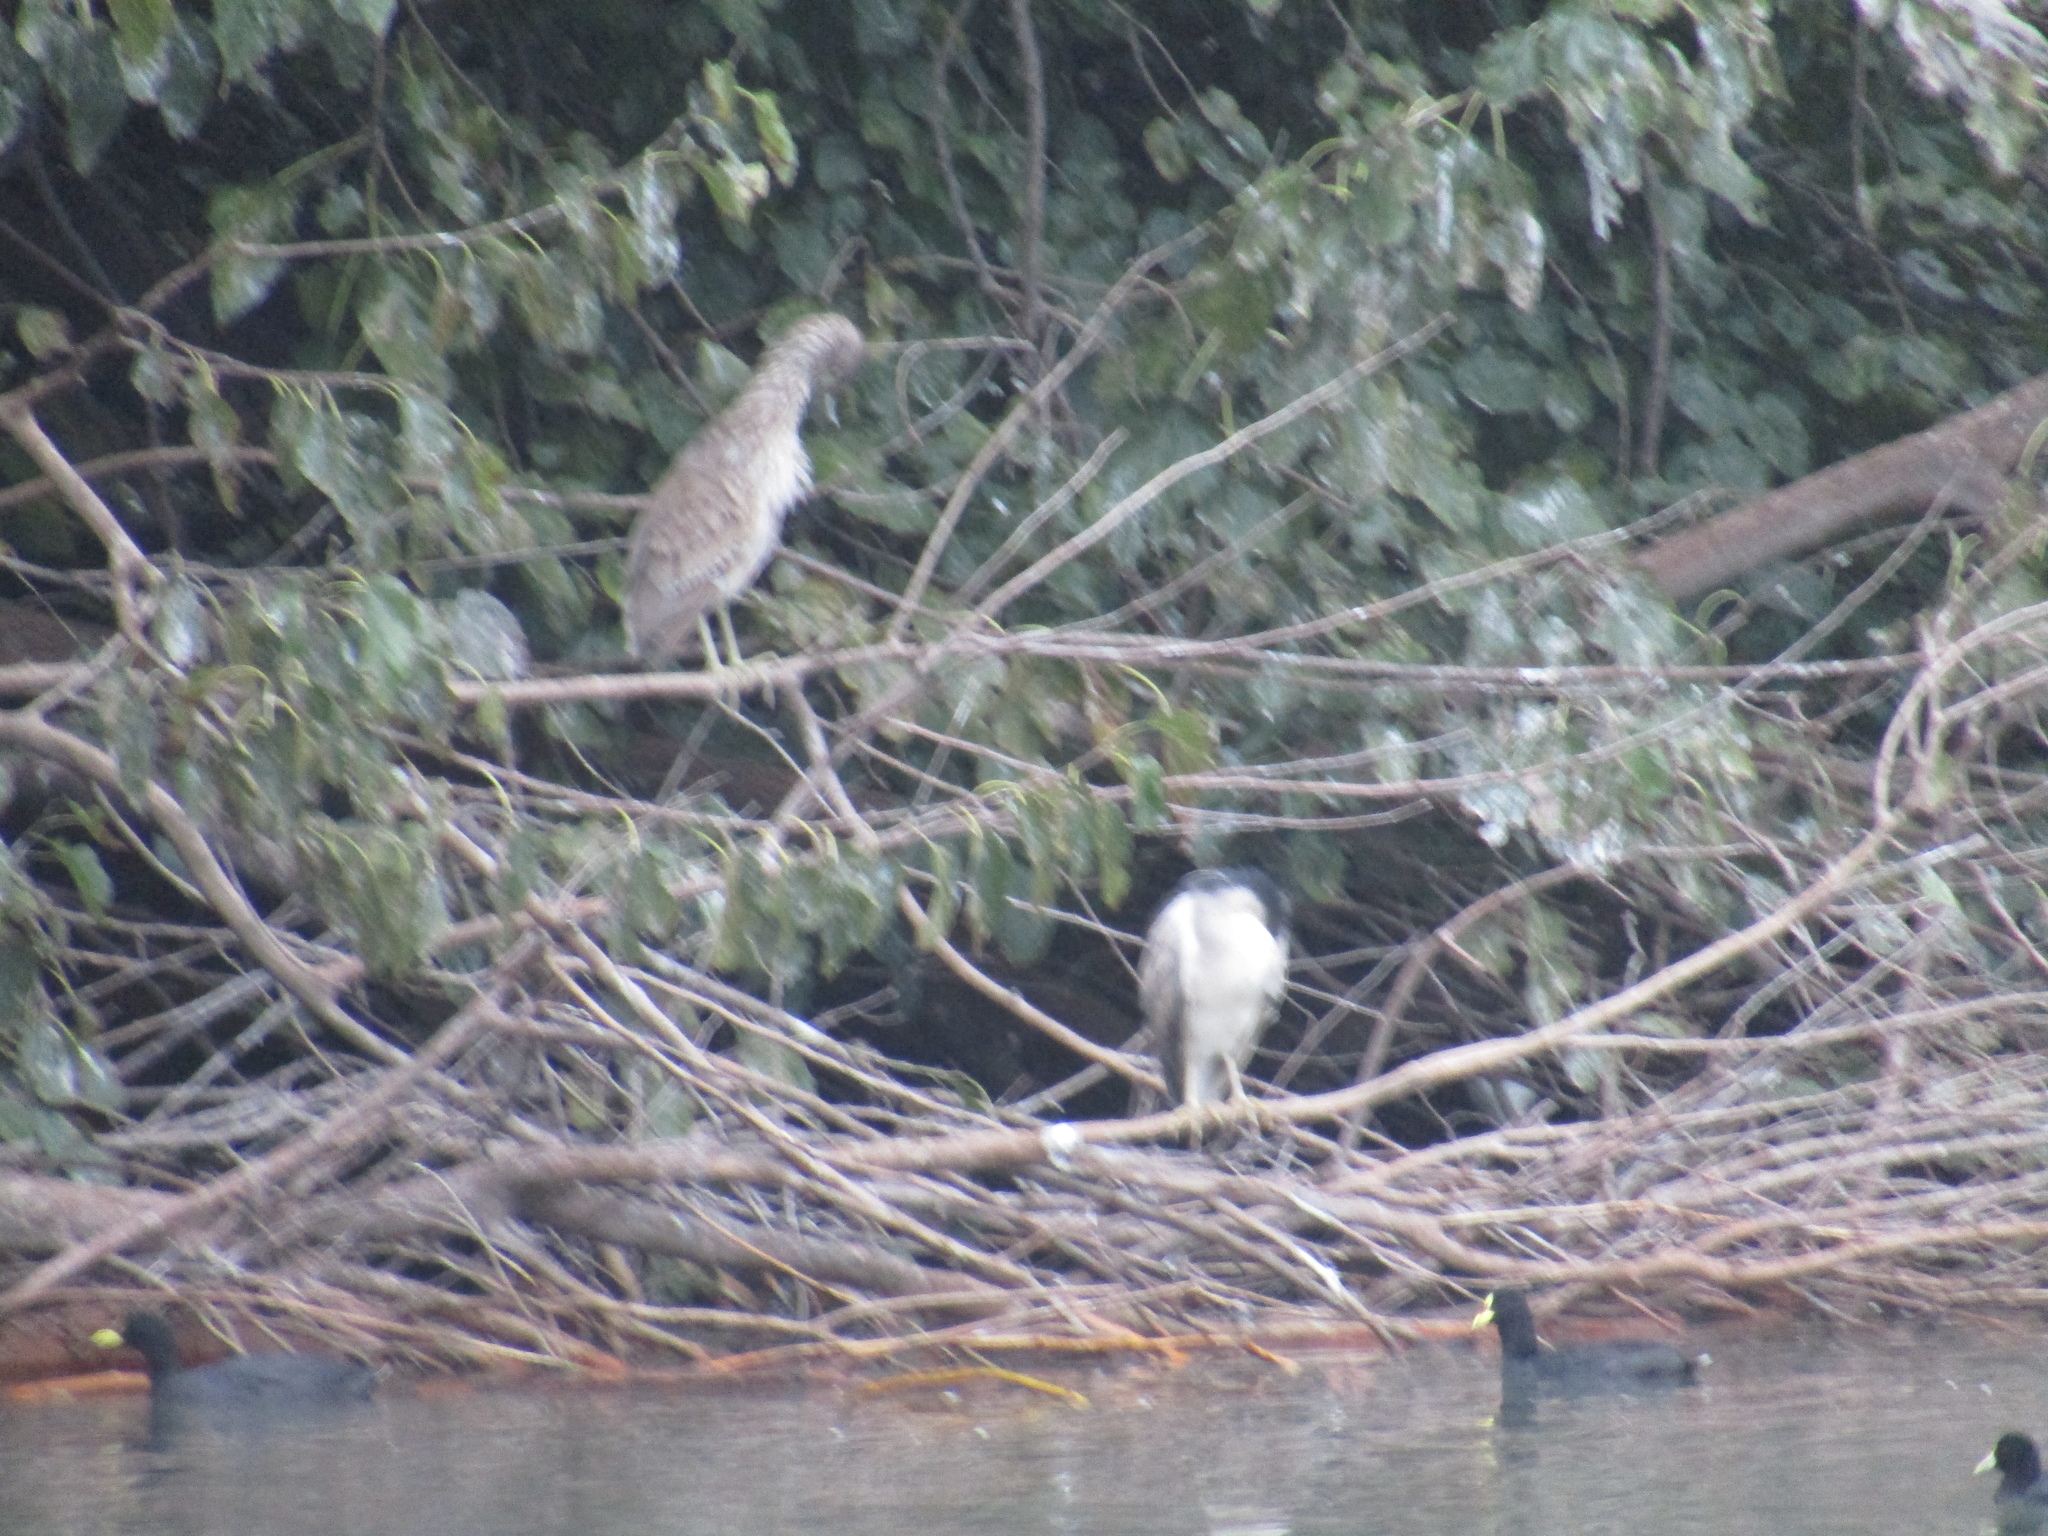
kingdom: Animalia
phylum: Chordata
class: Aves
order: Pelecaniformes
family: Ardeidae
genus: Nycticorax
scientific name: Nycticorax nycticorax
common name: Black-crowned night heron
